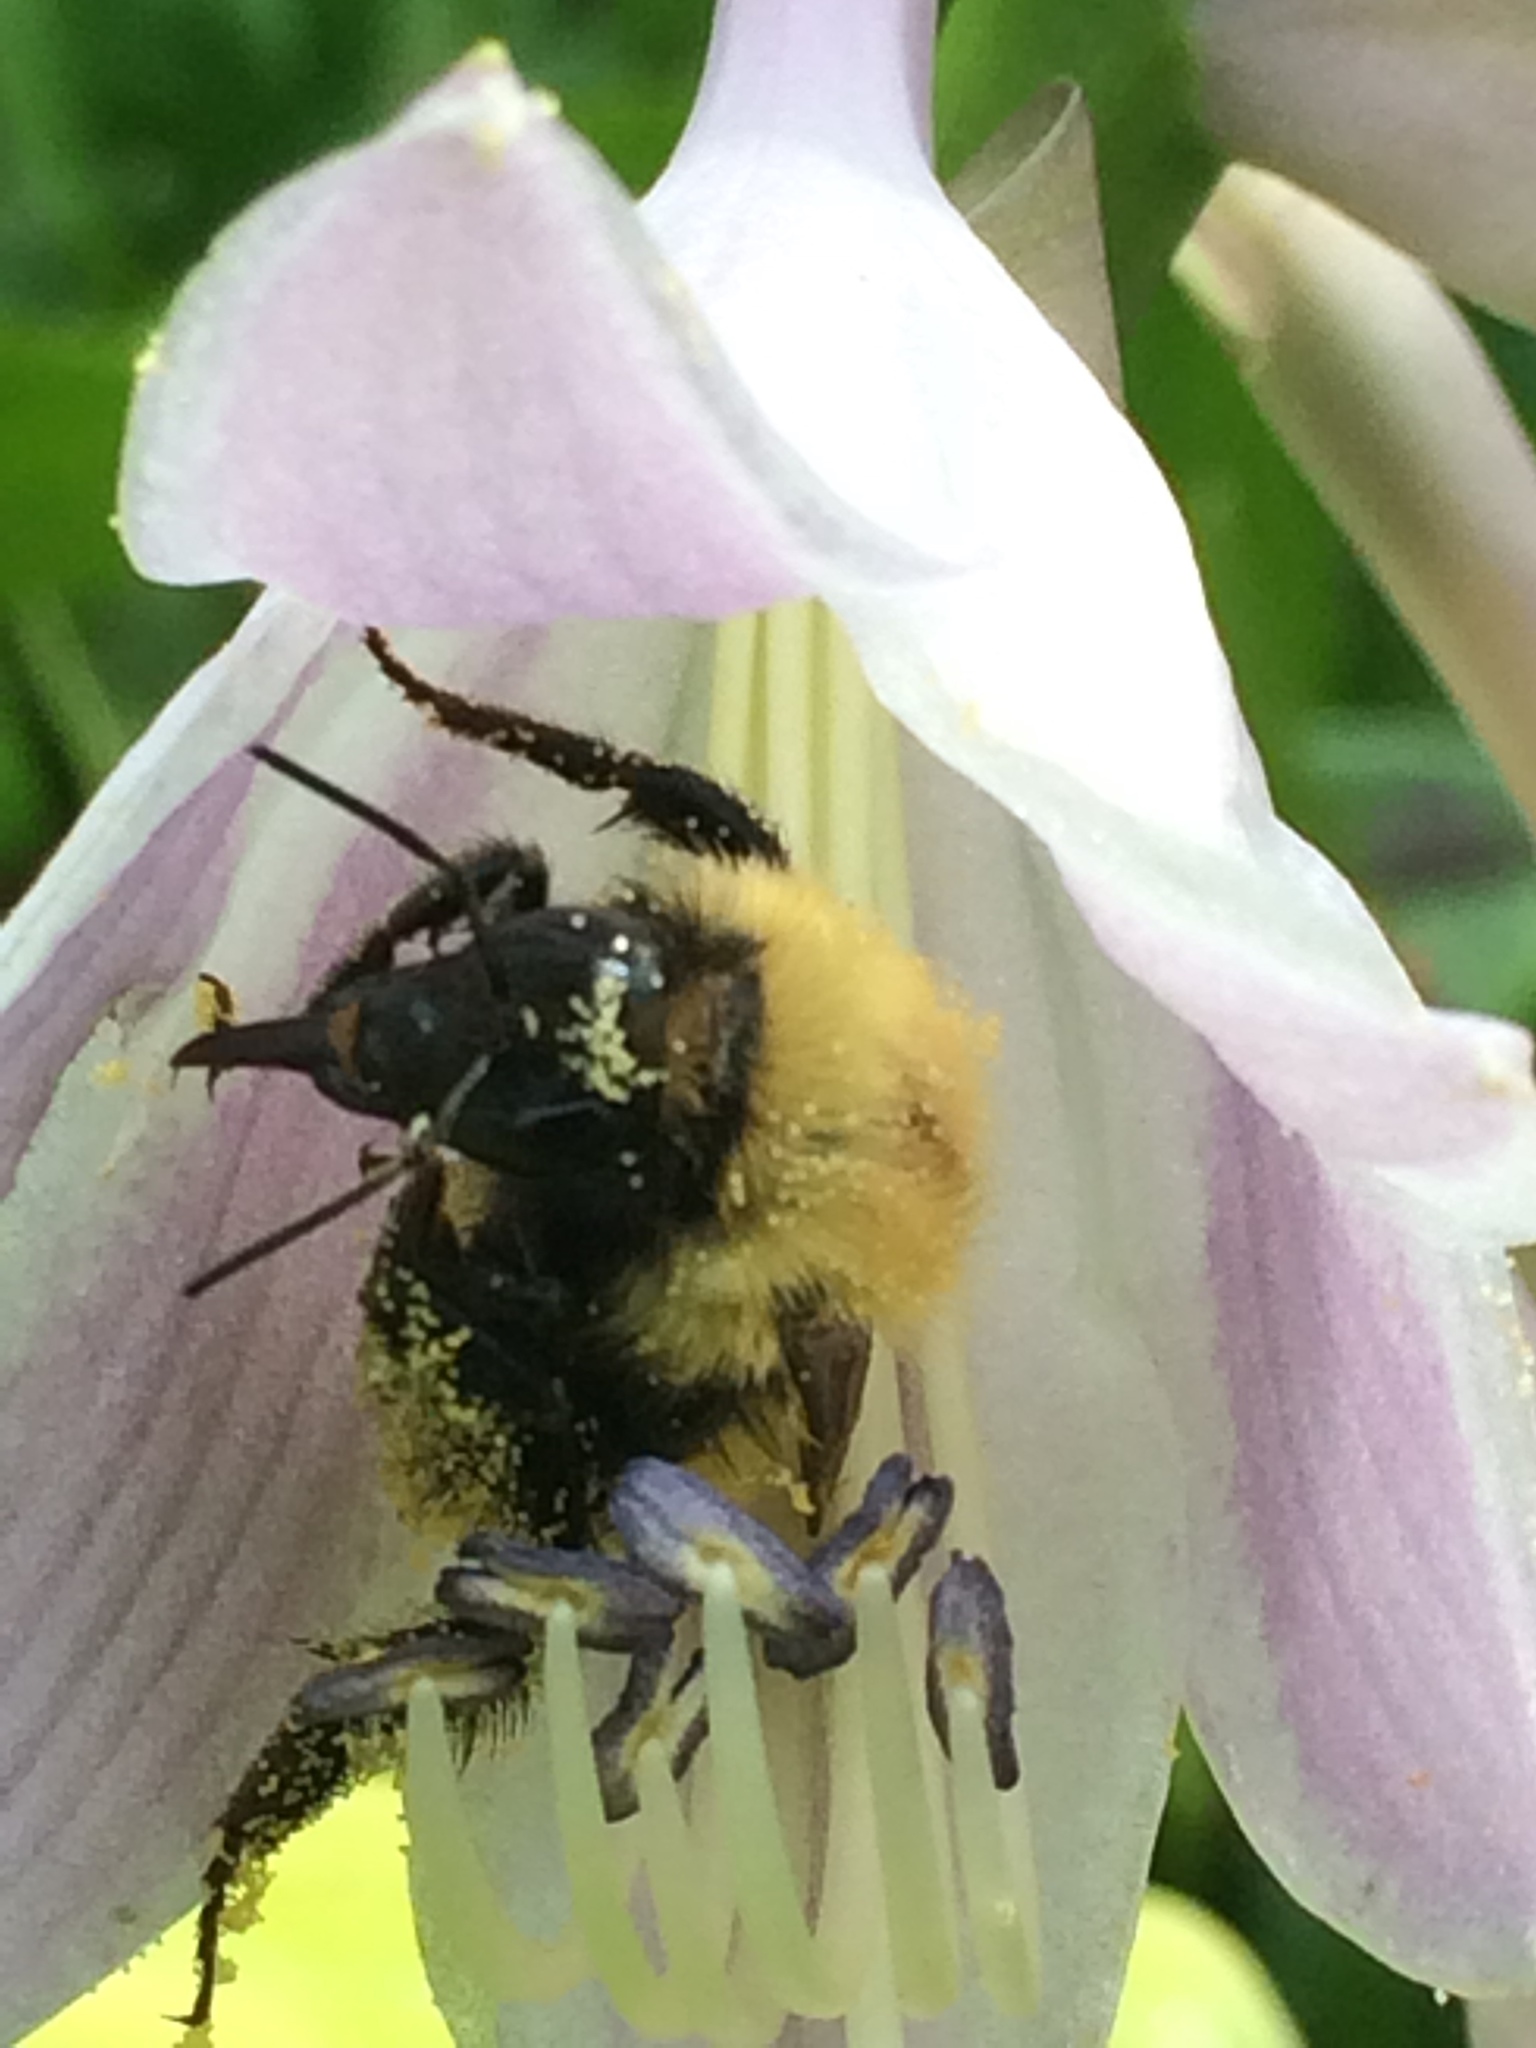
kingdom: Animalia
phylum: Arthropoda
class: Insecta
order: Hymenoptera
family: Apidae
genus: Bombus
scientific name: Bombus perplexus
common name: Confusing bumble bee
